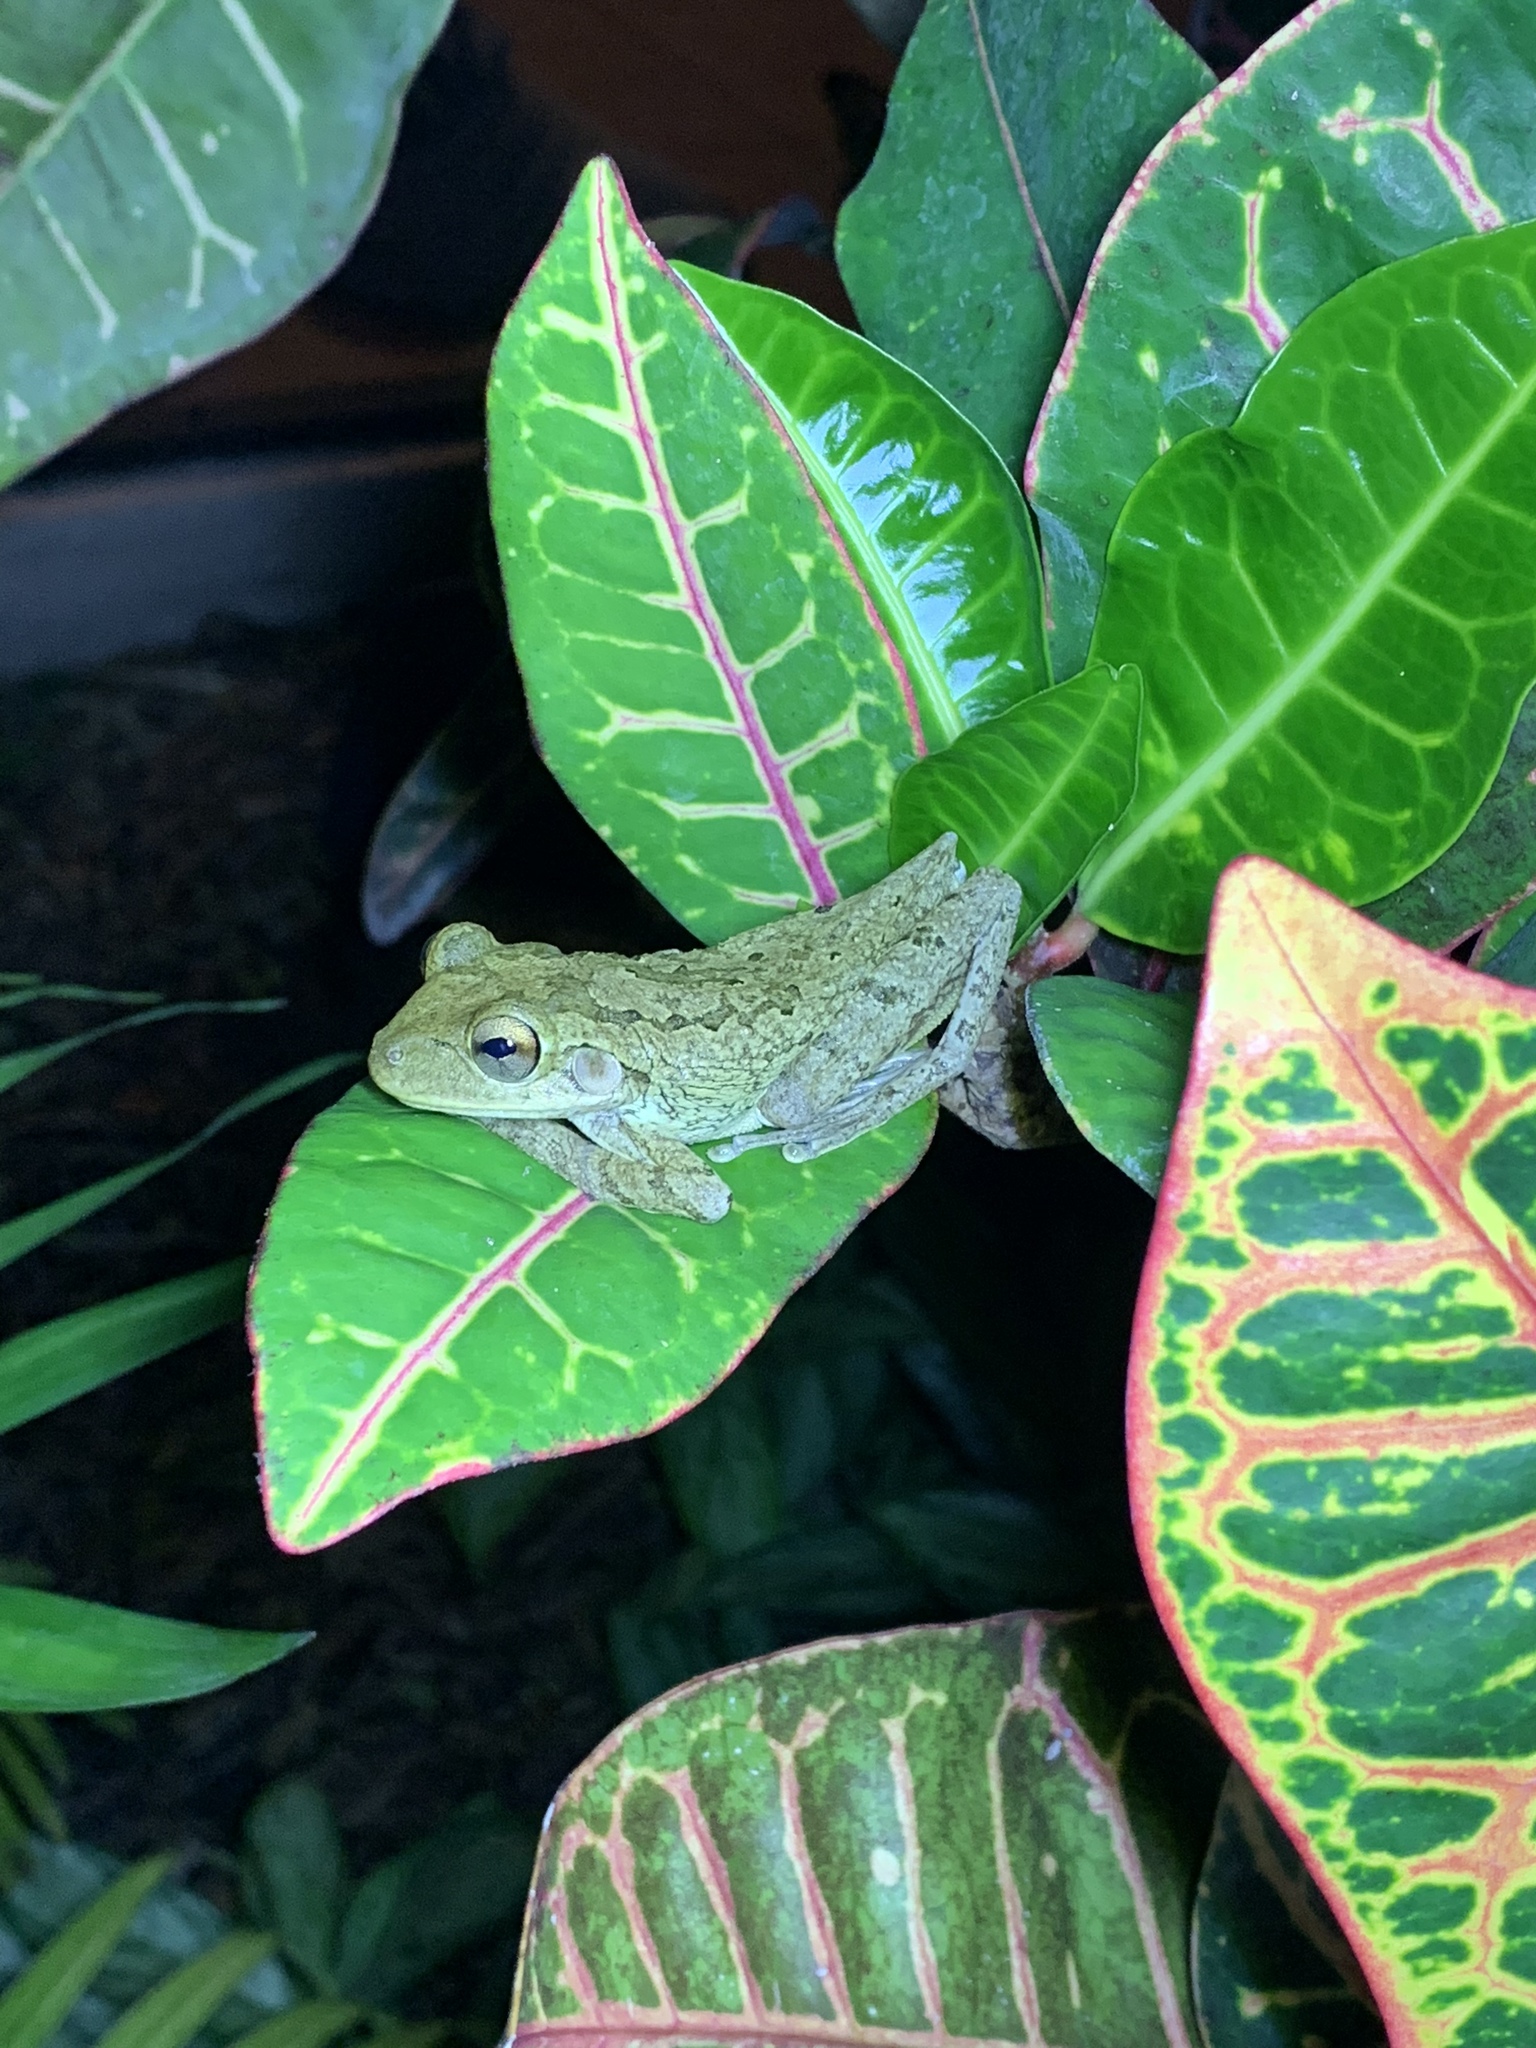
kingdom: Animalia
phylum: Chordata
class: Amphibia
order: Anura
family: Hylidae
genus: Osteopilus
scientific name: Osteopilus septentrionalis
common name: Cuban treefrog
